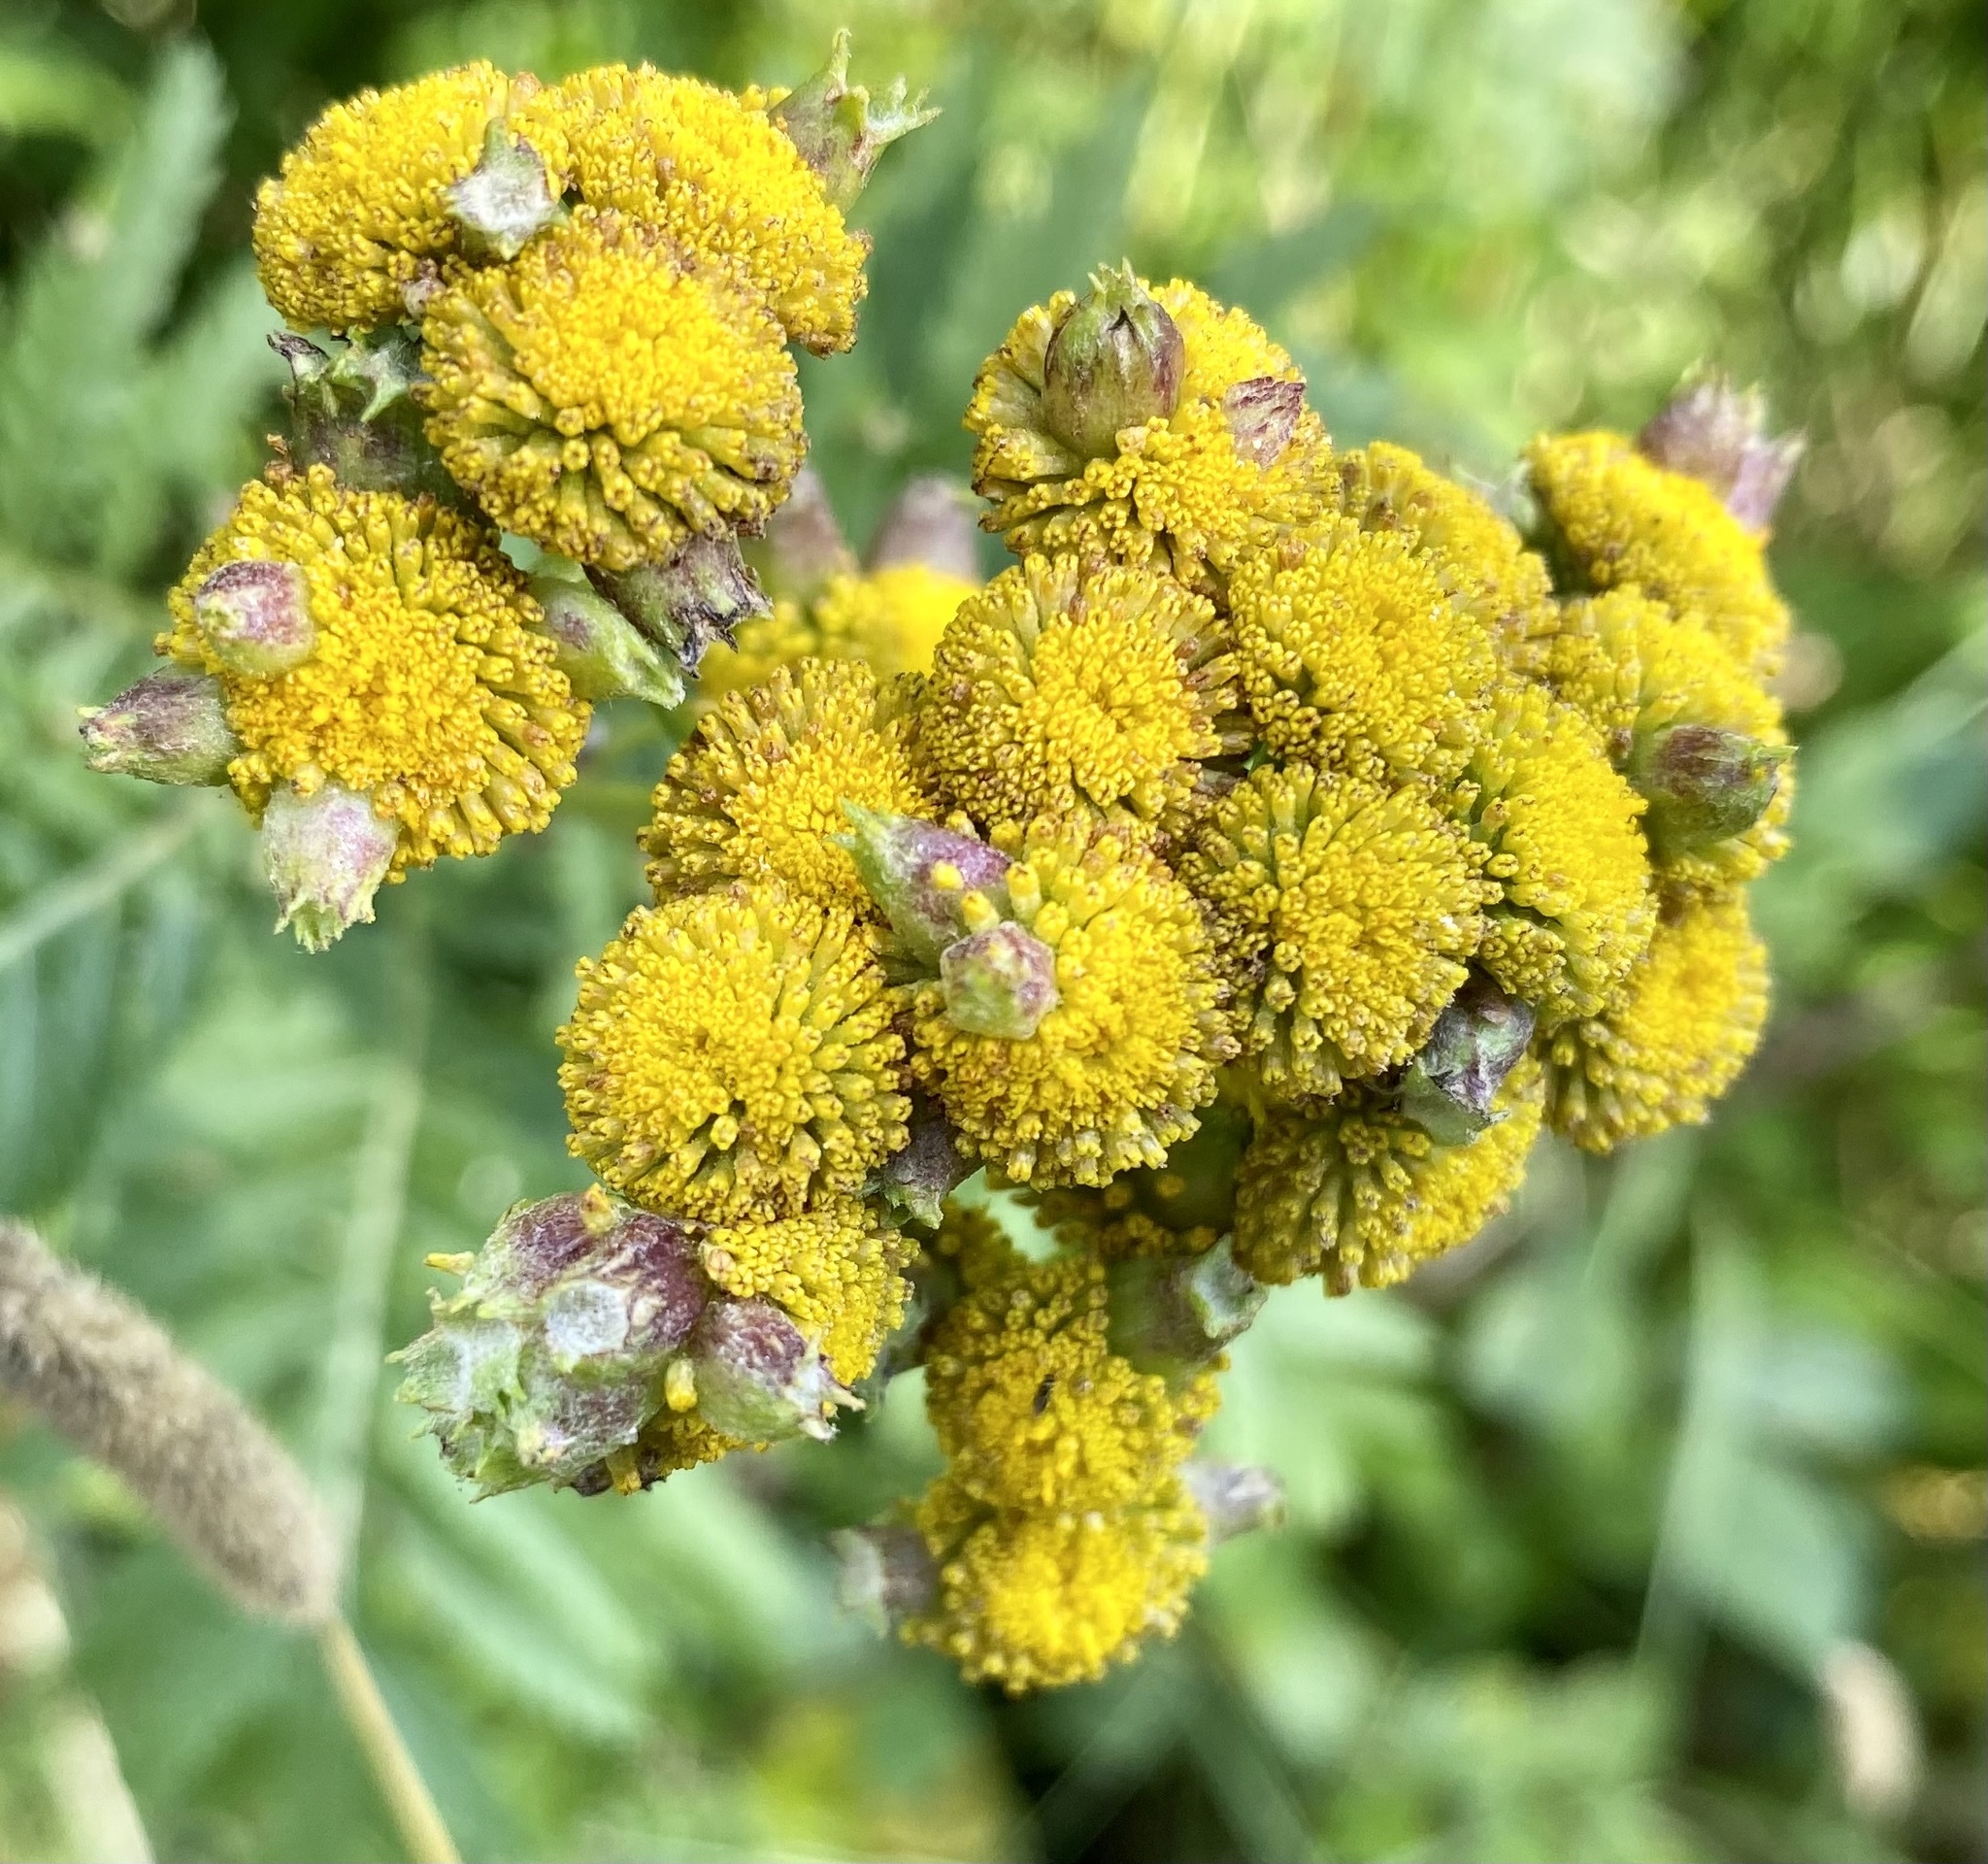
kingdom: Animalia
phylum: Arthropoda
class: Insecta
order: Diptera
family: Cecidomyiidae
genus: Rhopalomyia
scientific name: Rhopalomyia tanaceticolus
